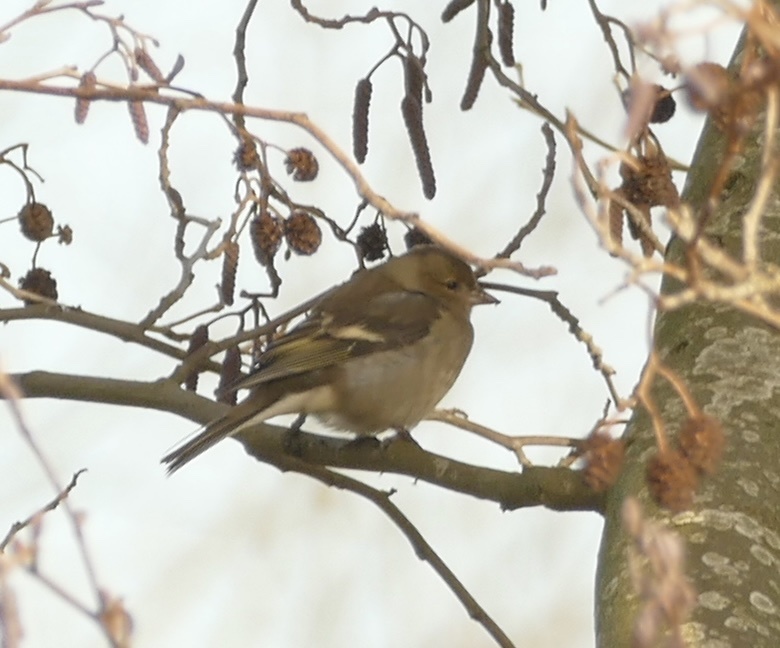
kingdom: Animalia
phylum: Chordata
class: Aves
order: Passeriformes
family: Fringillidae
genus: Fringilla
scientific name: Fringilla coelebs
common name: Common chaffinch
